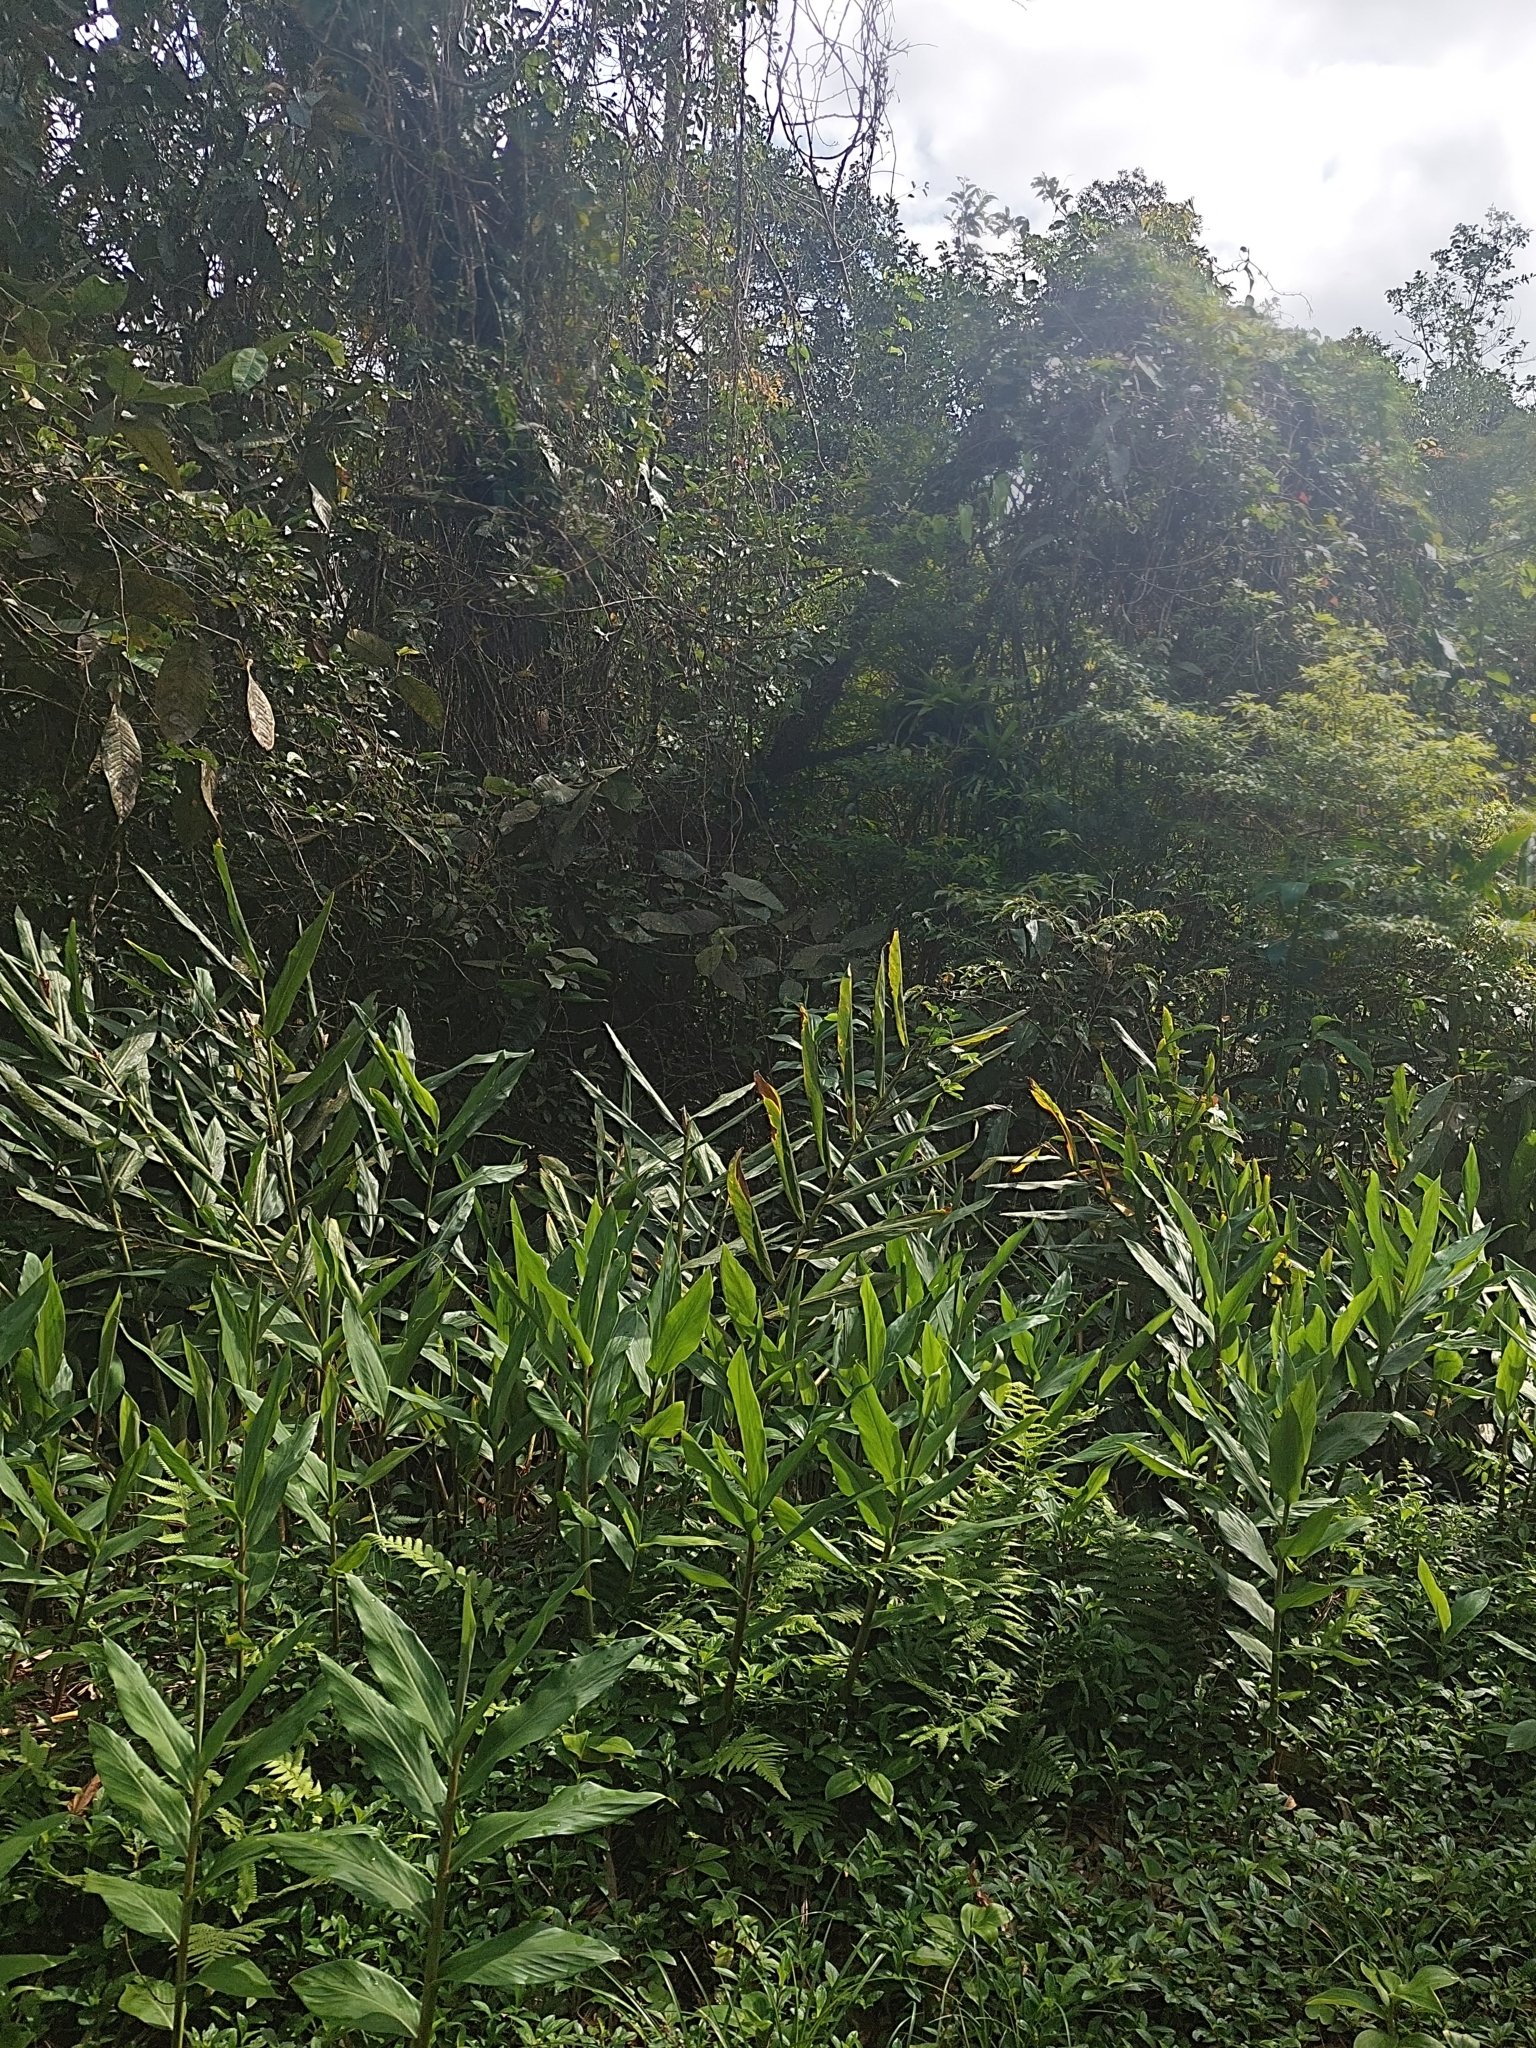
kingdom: Plantae
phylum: Tracheophyta
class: Liliopsida
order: Zingiberales
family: Zingiberaceae
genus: Hedychium
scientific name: Hedychium coronarium
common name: White garland-lily
